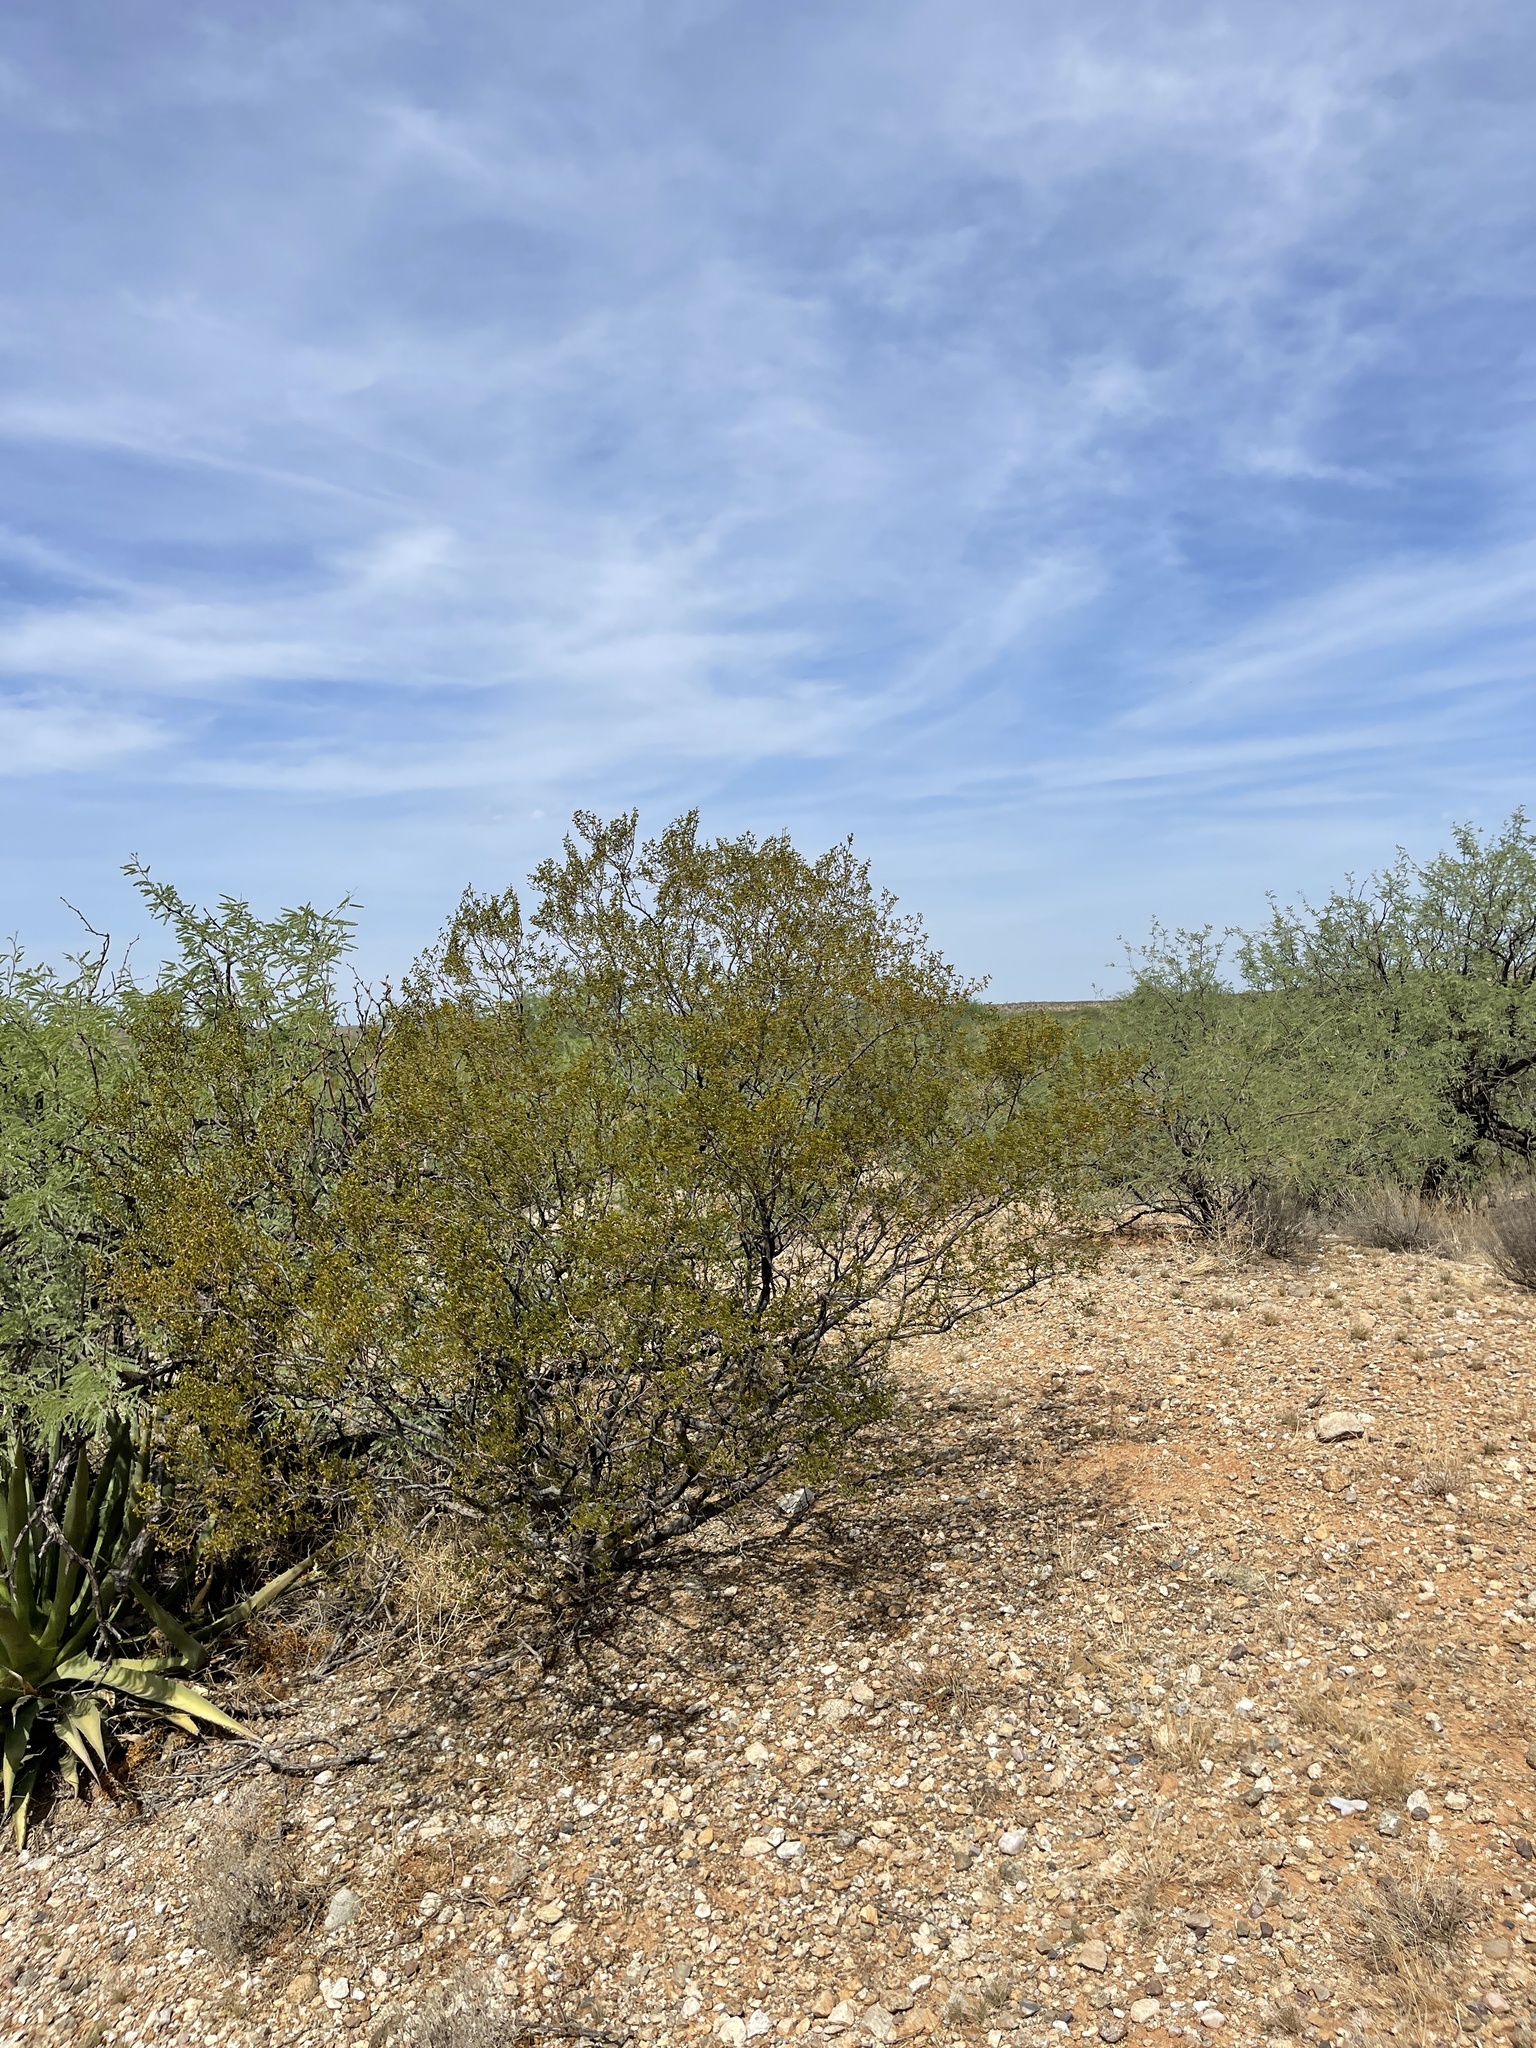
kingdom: Plantae
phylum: Tracheophyta
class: Magnoliopsida
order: Zygophyllales
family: Zygophyllaceae
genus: Larrea
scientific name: Larrea tridentata
